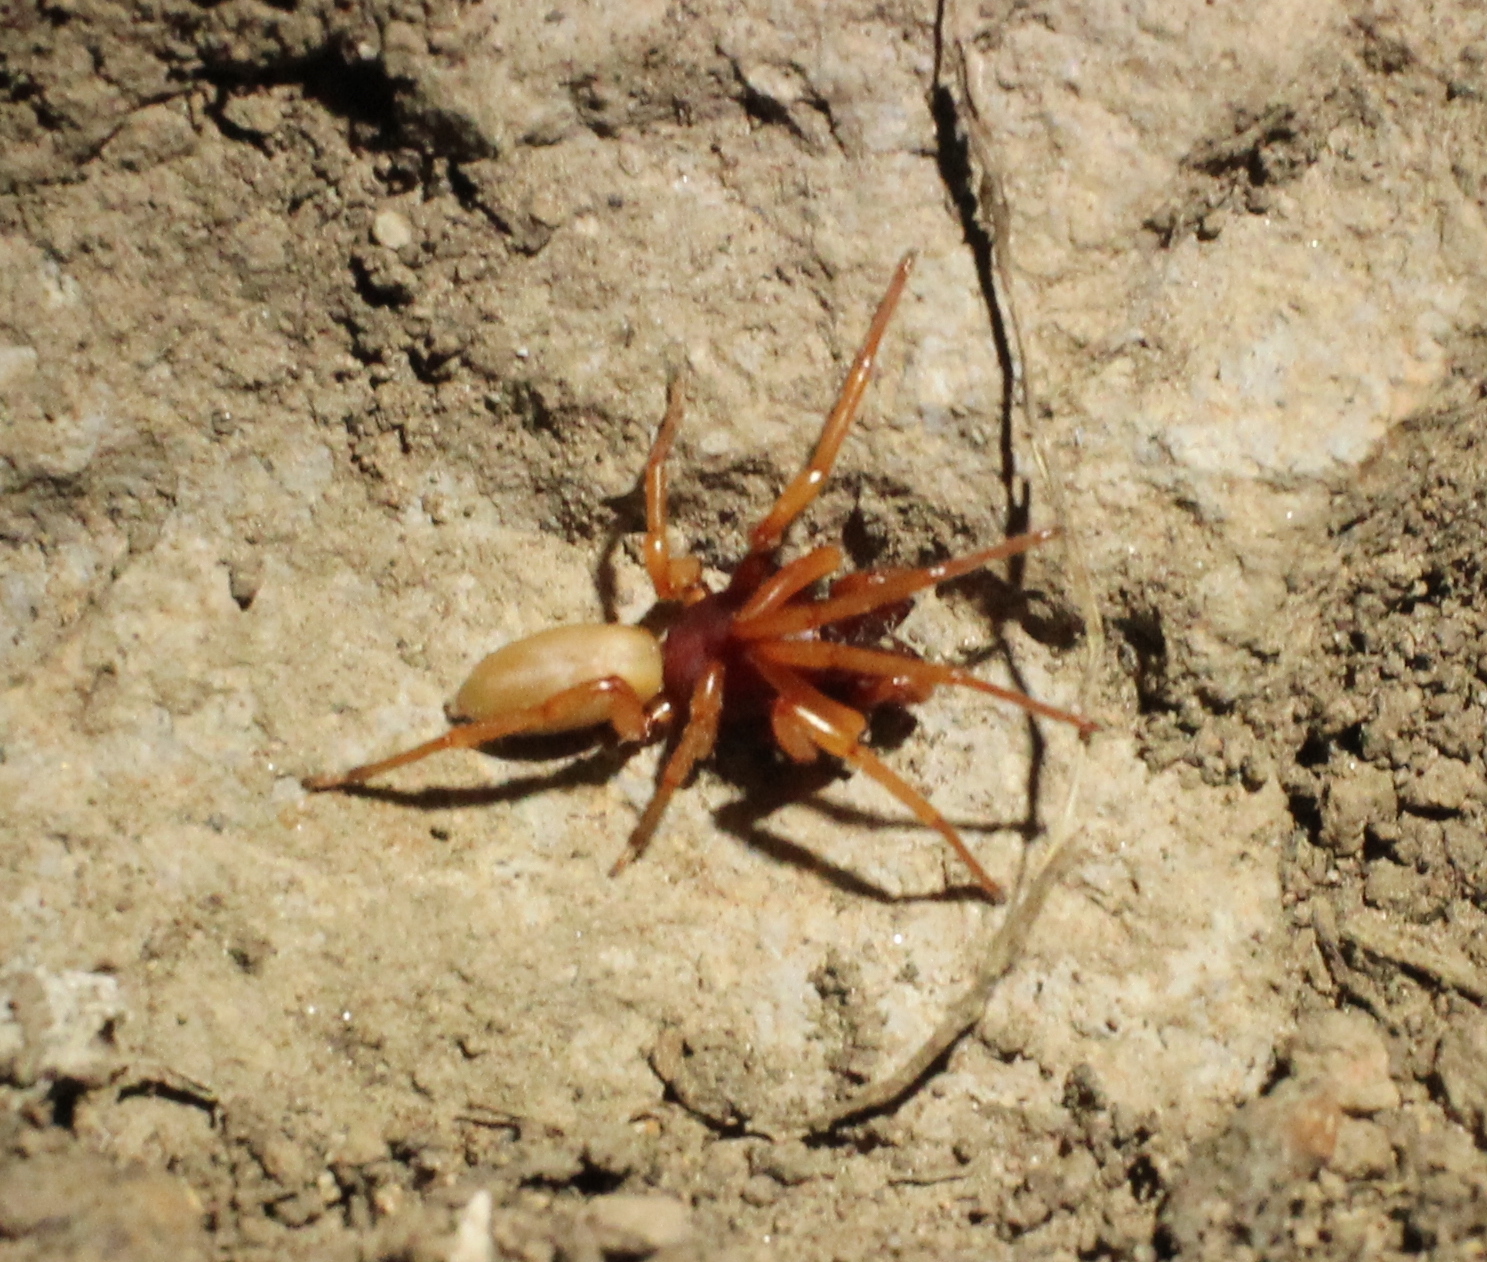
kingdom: Animalia
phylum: Arthropoda
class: Arachnida
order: Araneae
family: Dysderidae
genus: Dysdera
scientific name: Dysdera crocata
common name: Woodlouse spider
